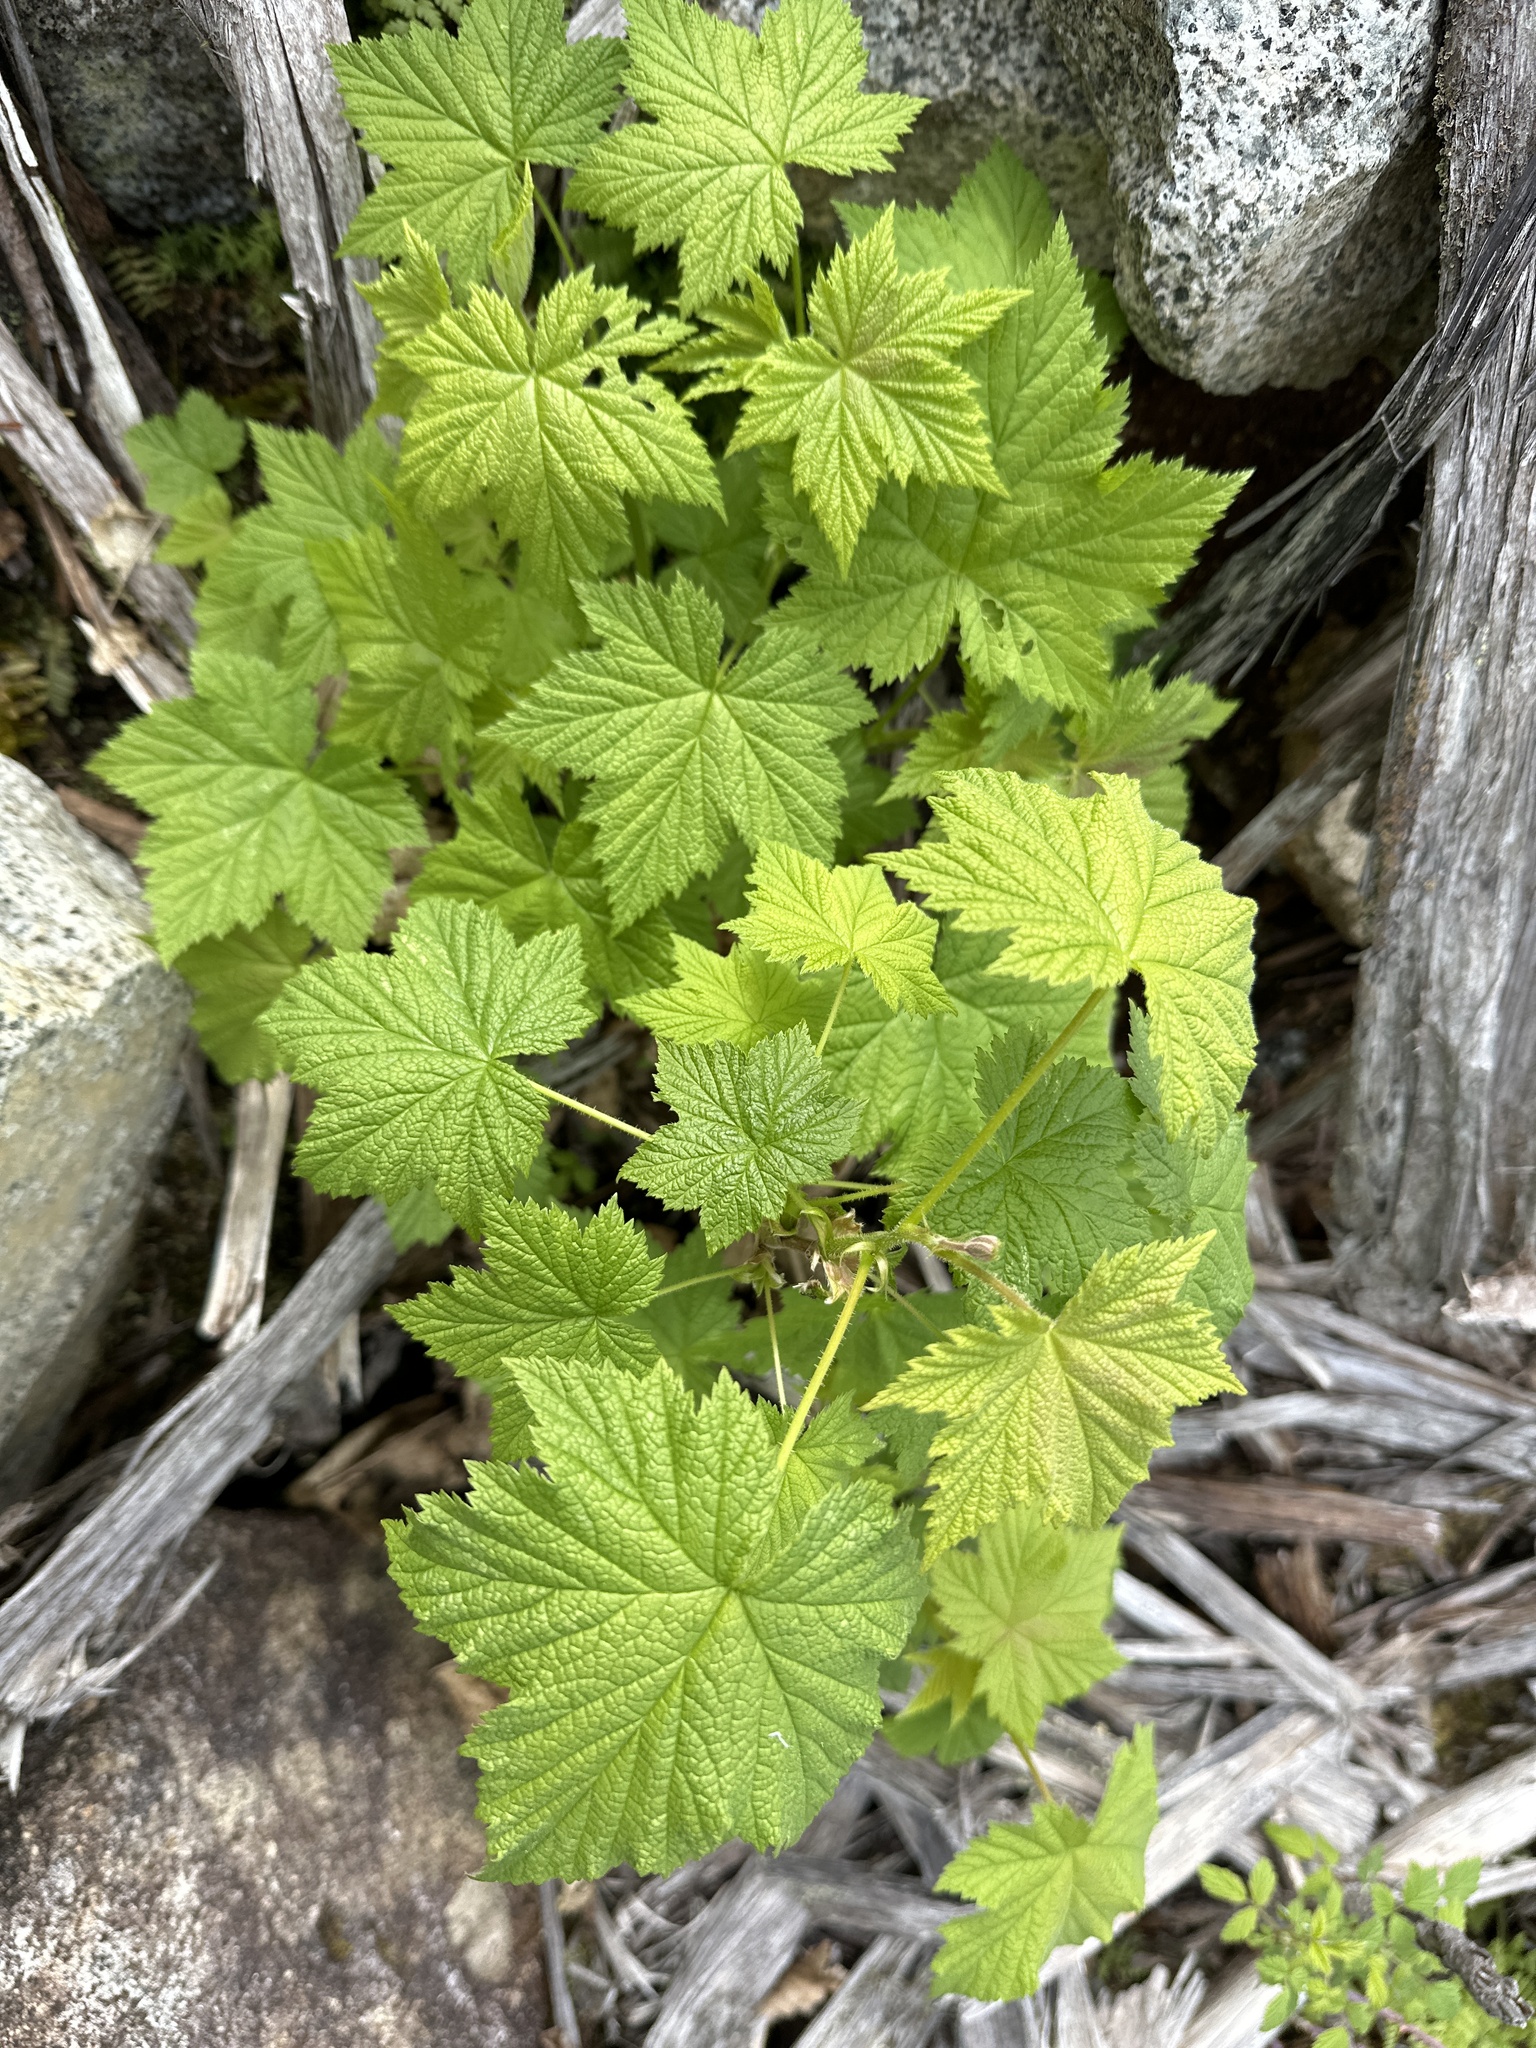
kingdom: Plantae
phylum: Tracheophyta
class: Magnoliopsida
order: Rosales
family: Rosaceae
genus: Rubus
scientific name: Rubus parviflorus
